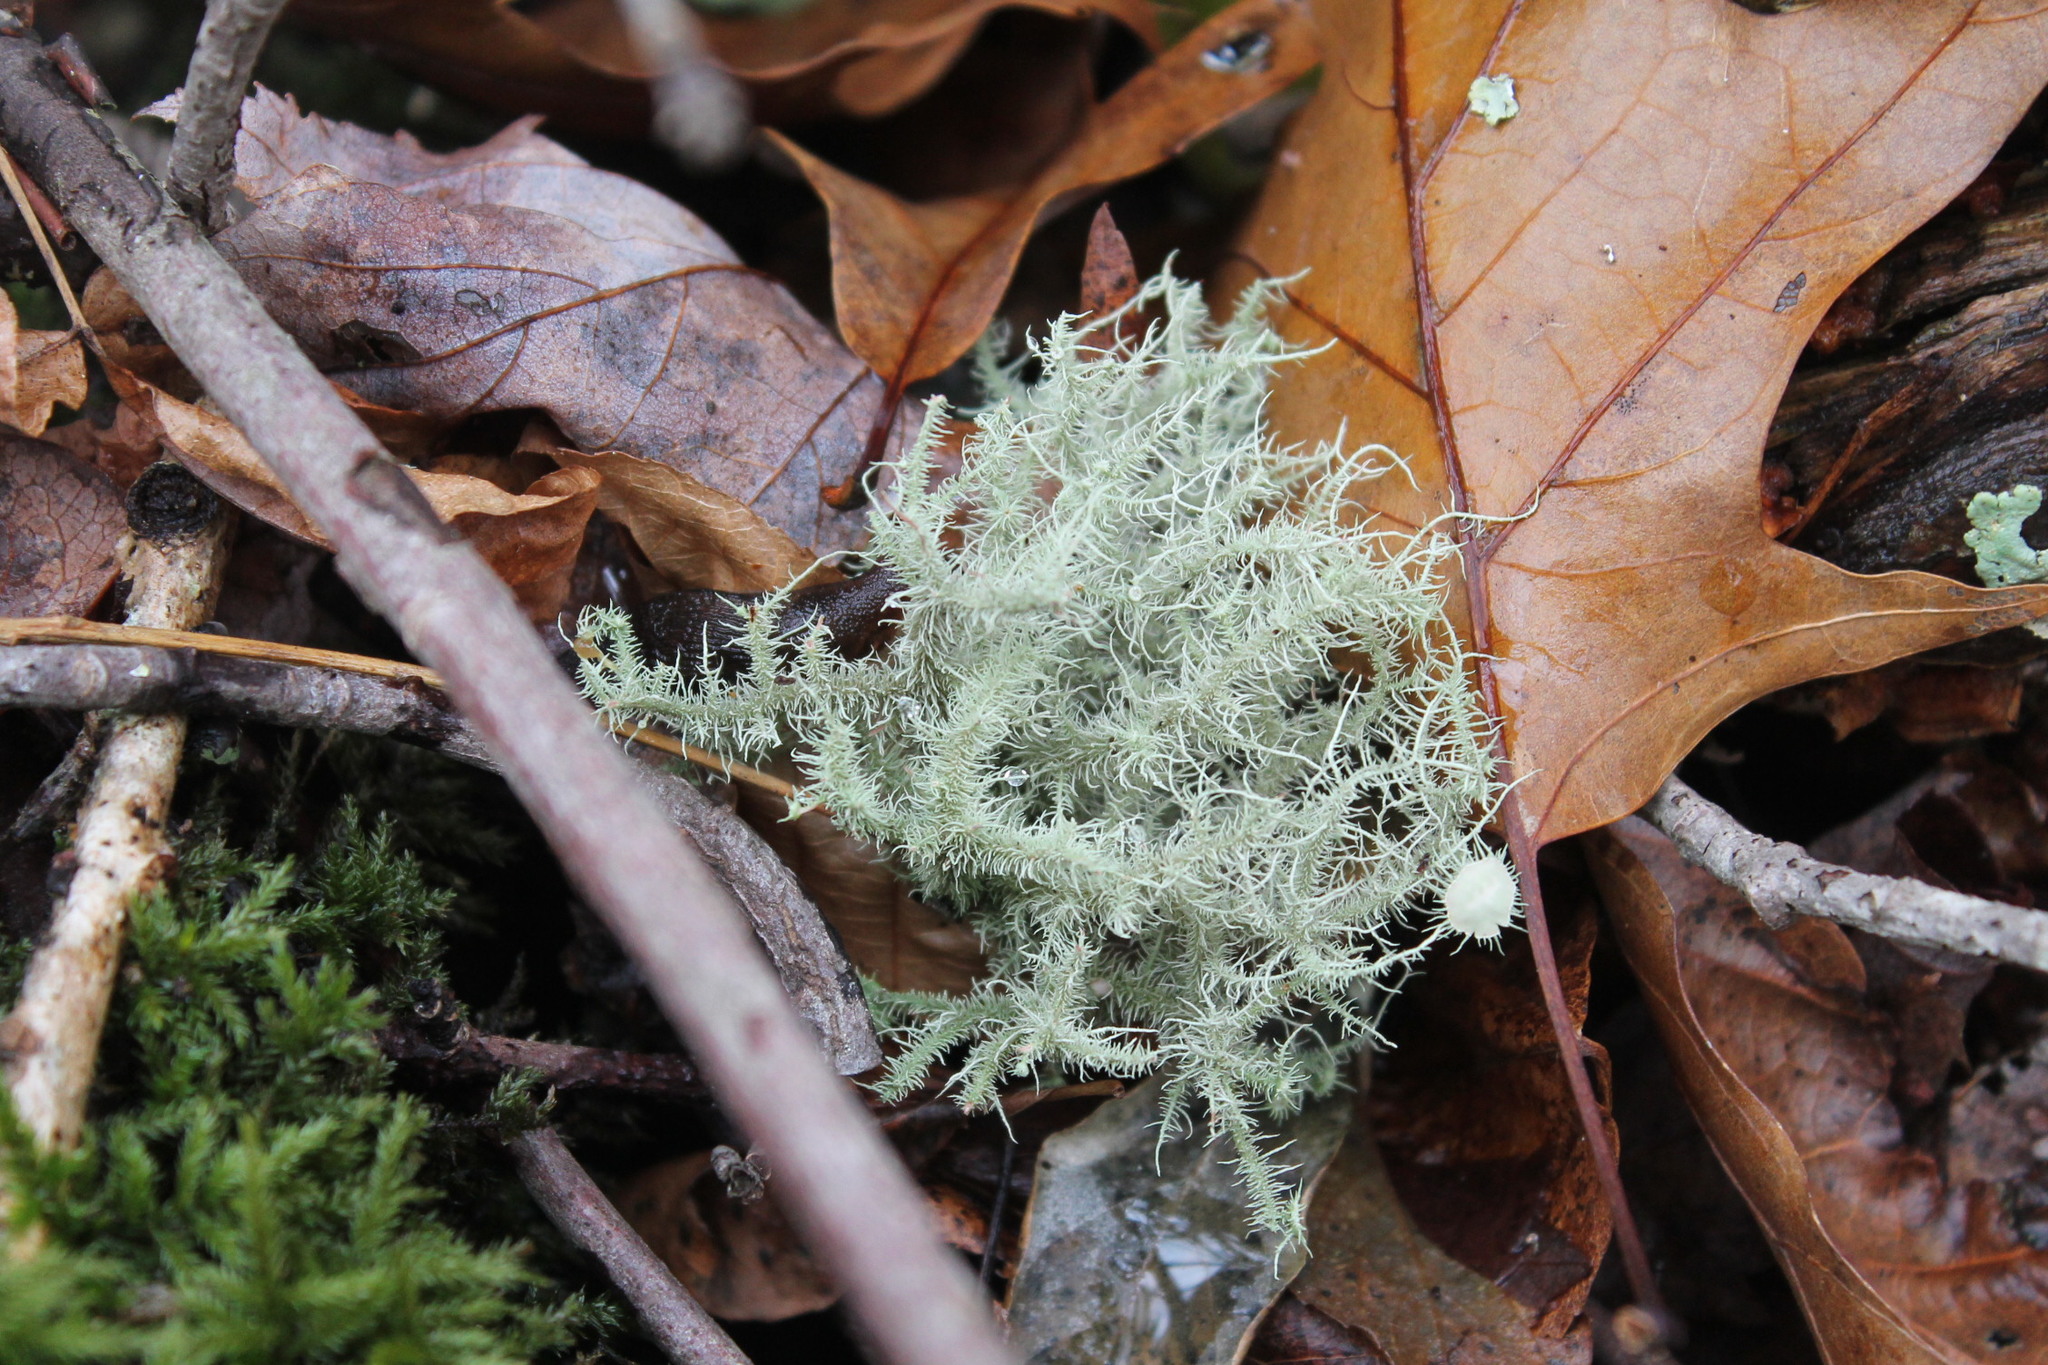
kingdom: Fungi
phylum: Ascomycota
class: Lecanoromycetes
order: Lecanorales
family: Parmeliaceae
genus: Usnea
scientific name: Usnea strigosa
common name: Bushy beard lichen
